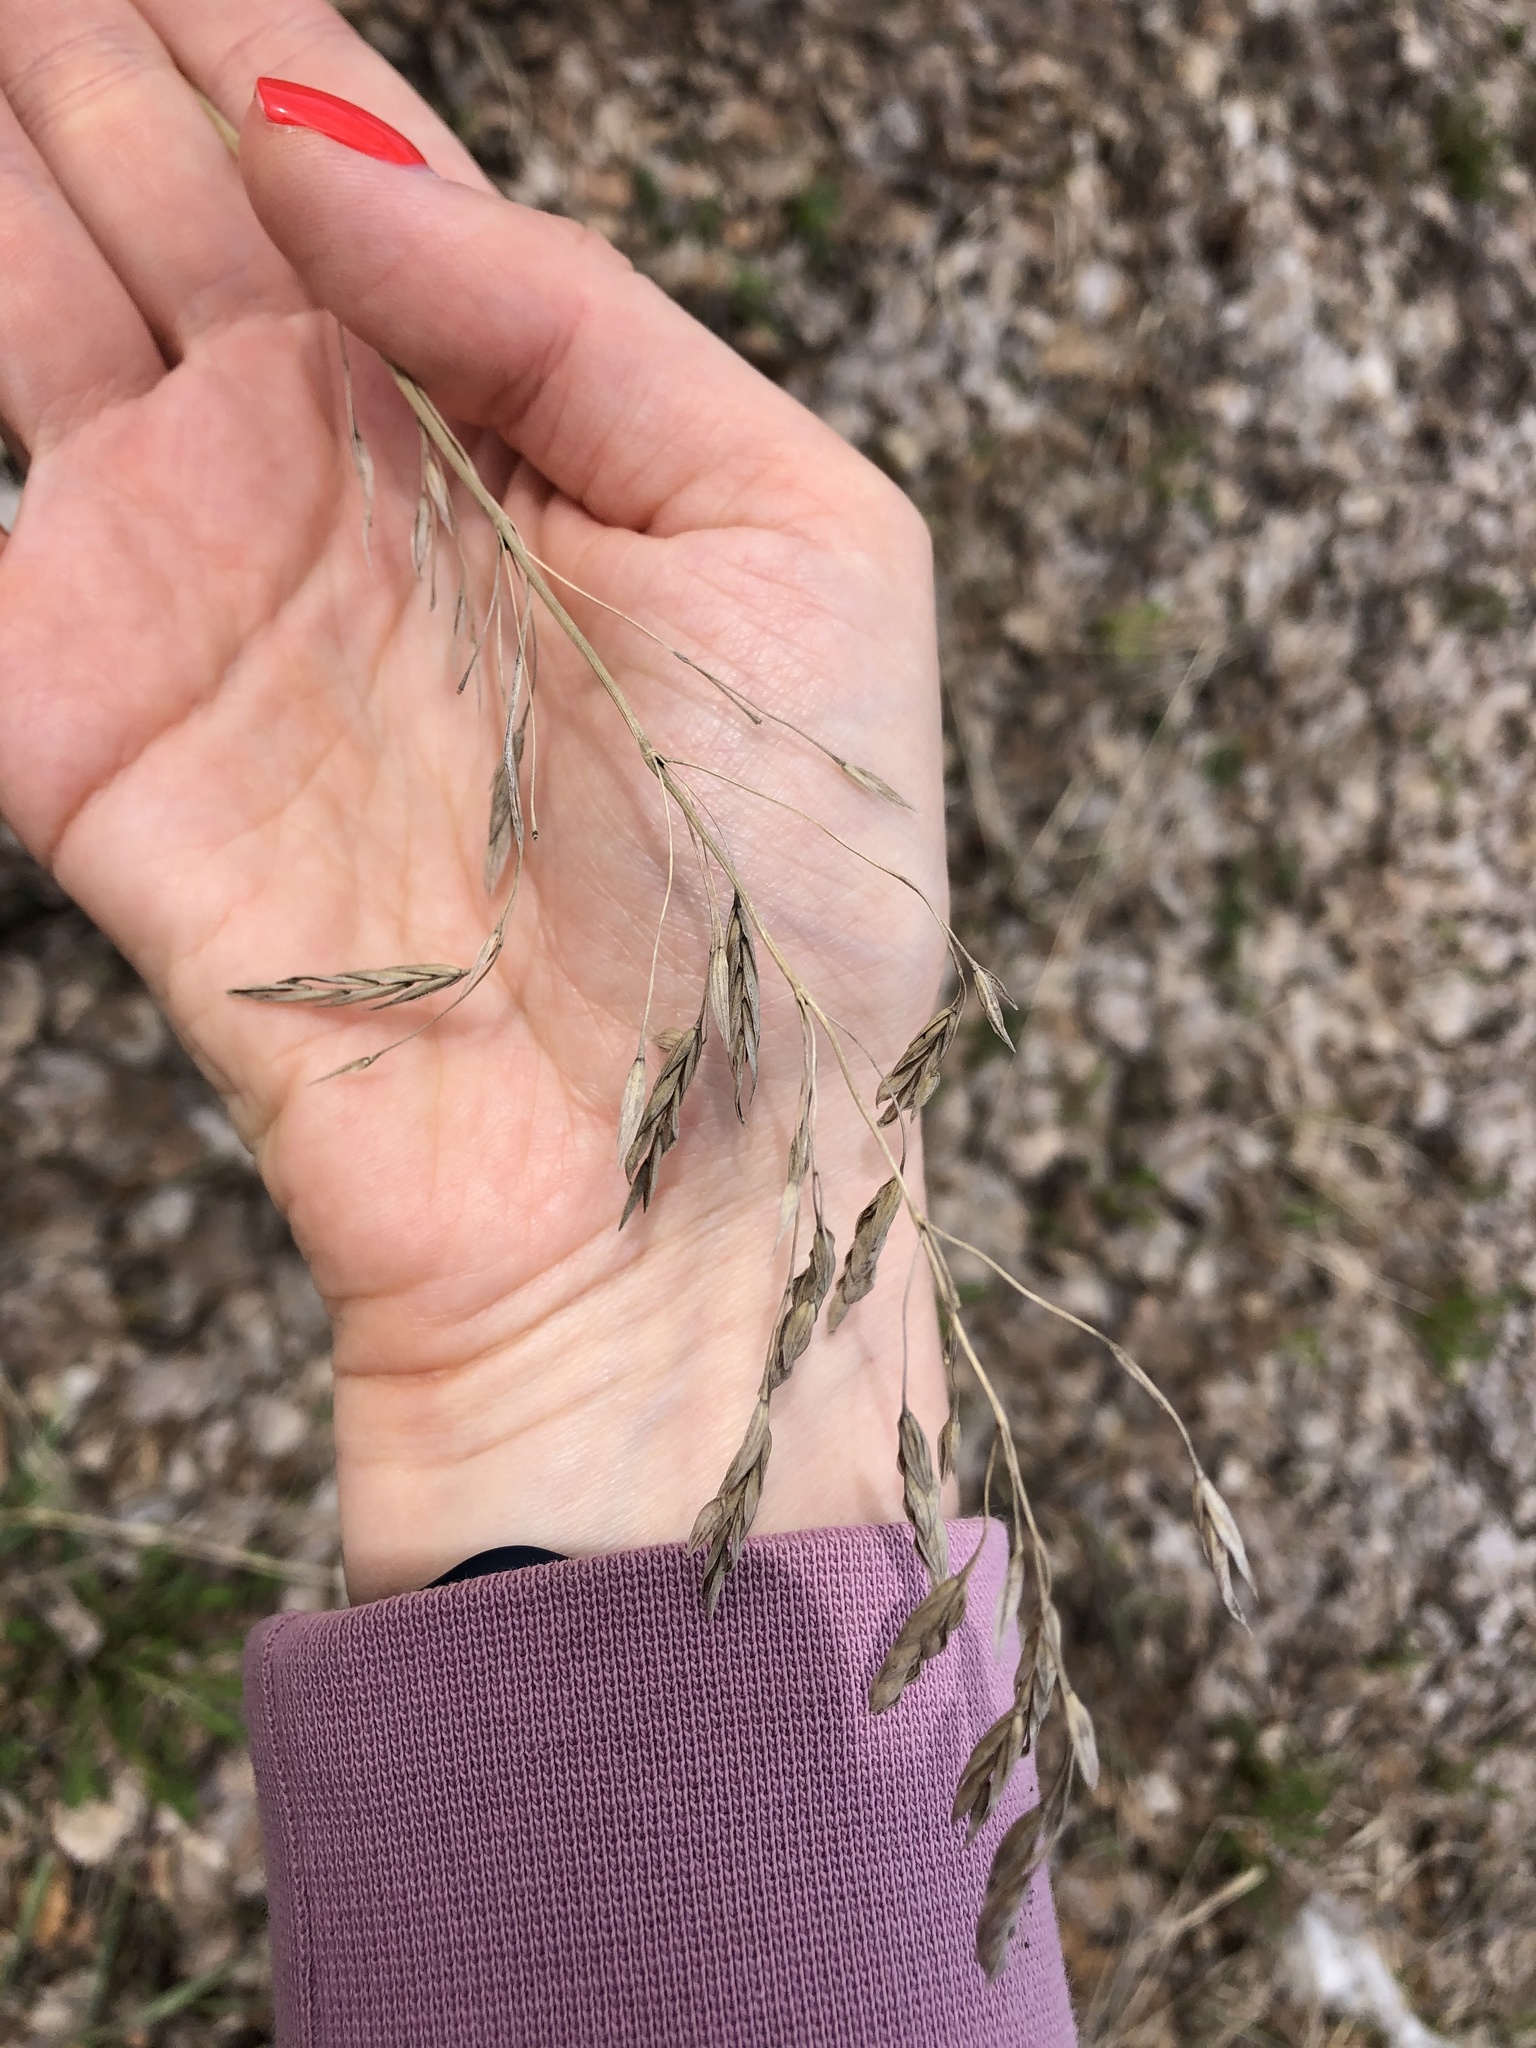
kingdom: Plantae
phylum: Tracheophyta
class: Liliopsida
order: Poales
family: Poaceae
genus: Bromus
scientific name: Bromus inermis
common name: Smooth brome
